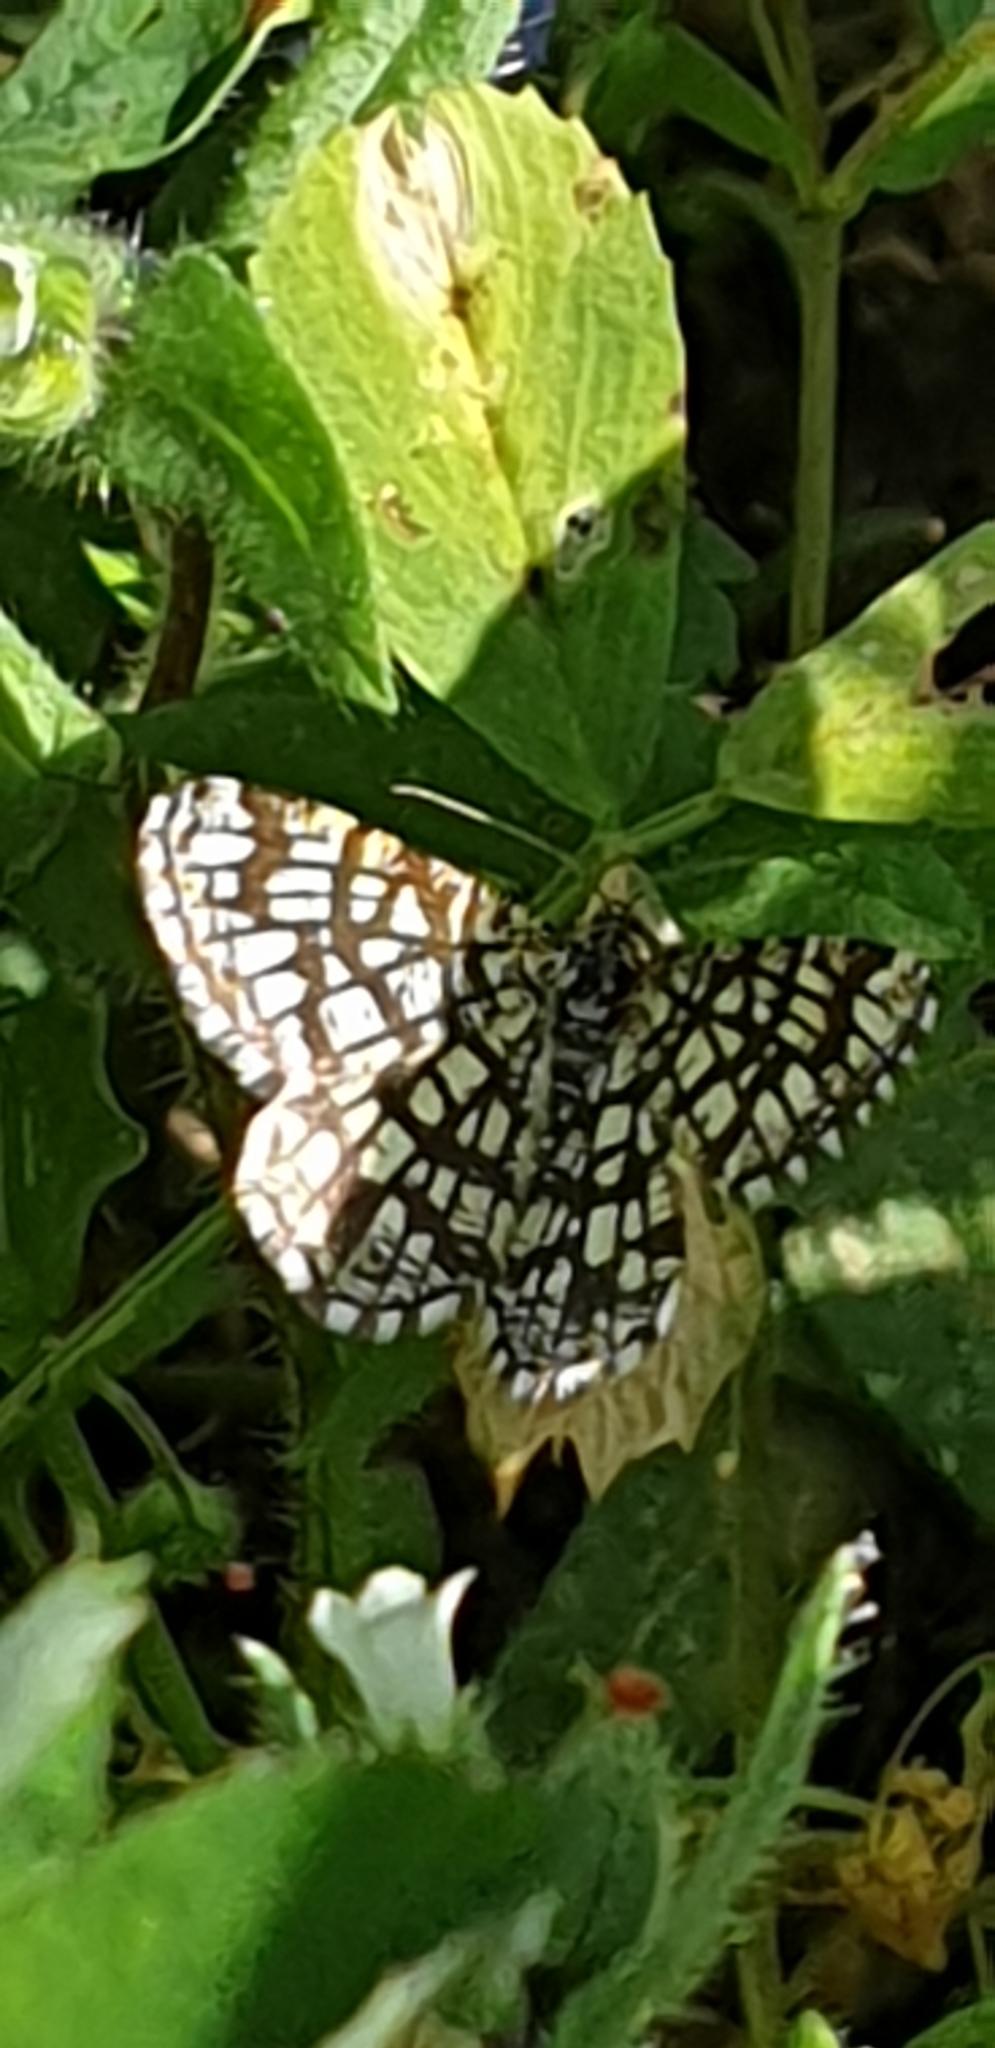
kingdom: Animalia
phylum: Arthropoda
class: Insecta
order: Lepidoptera
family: Geometridae
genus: Chiasmia
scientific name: Chiasmia clathrata
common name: Latticed heath
